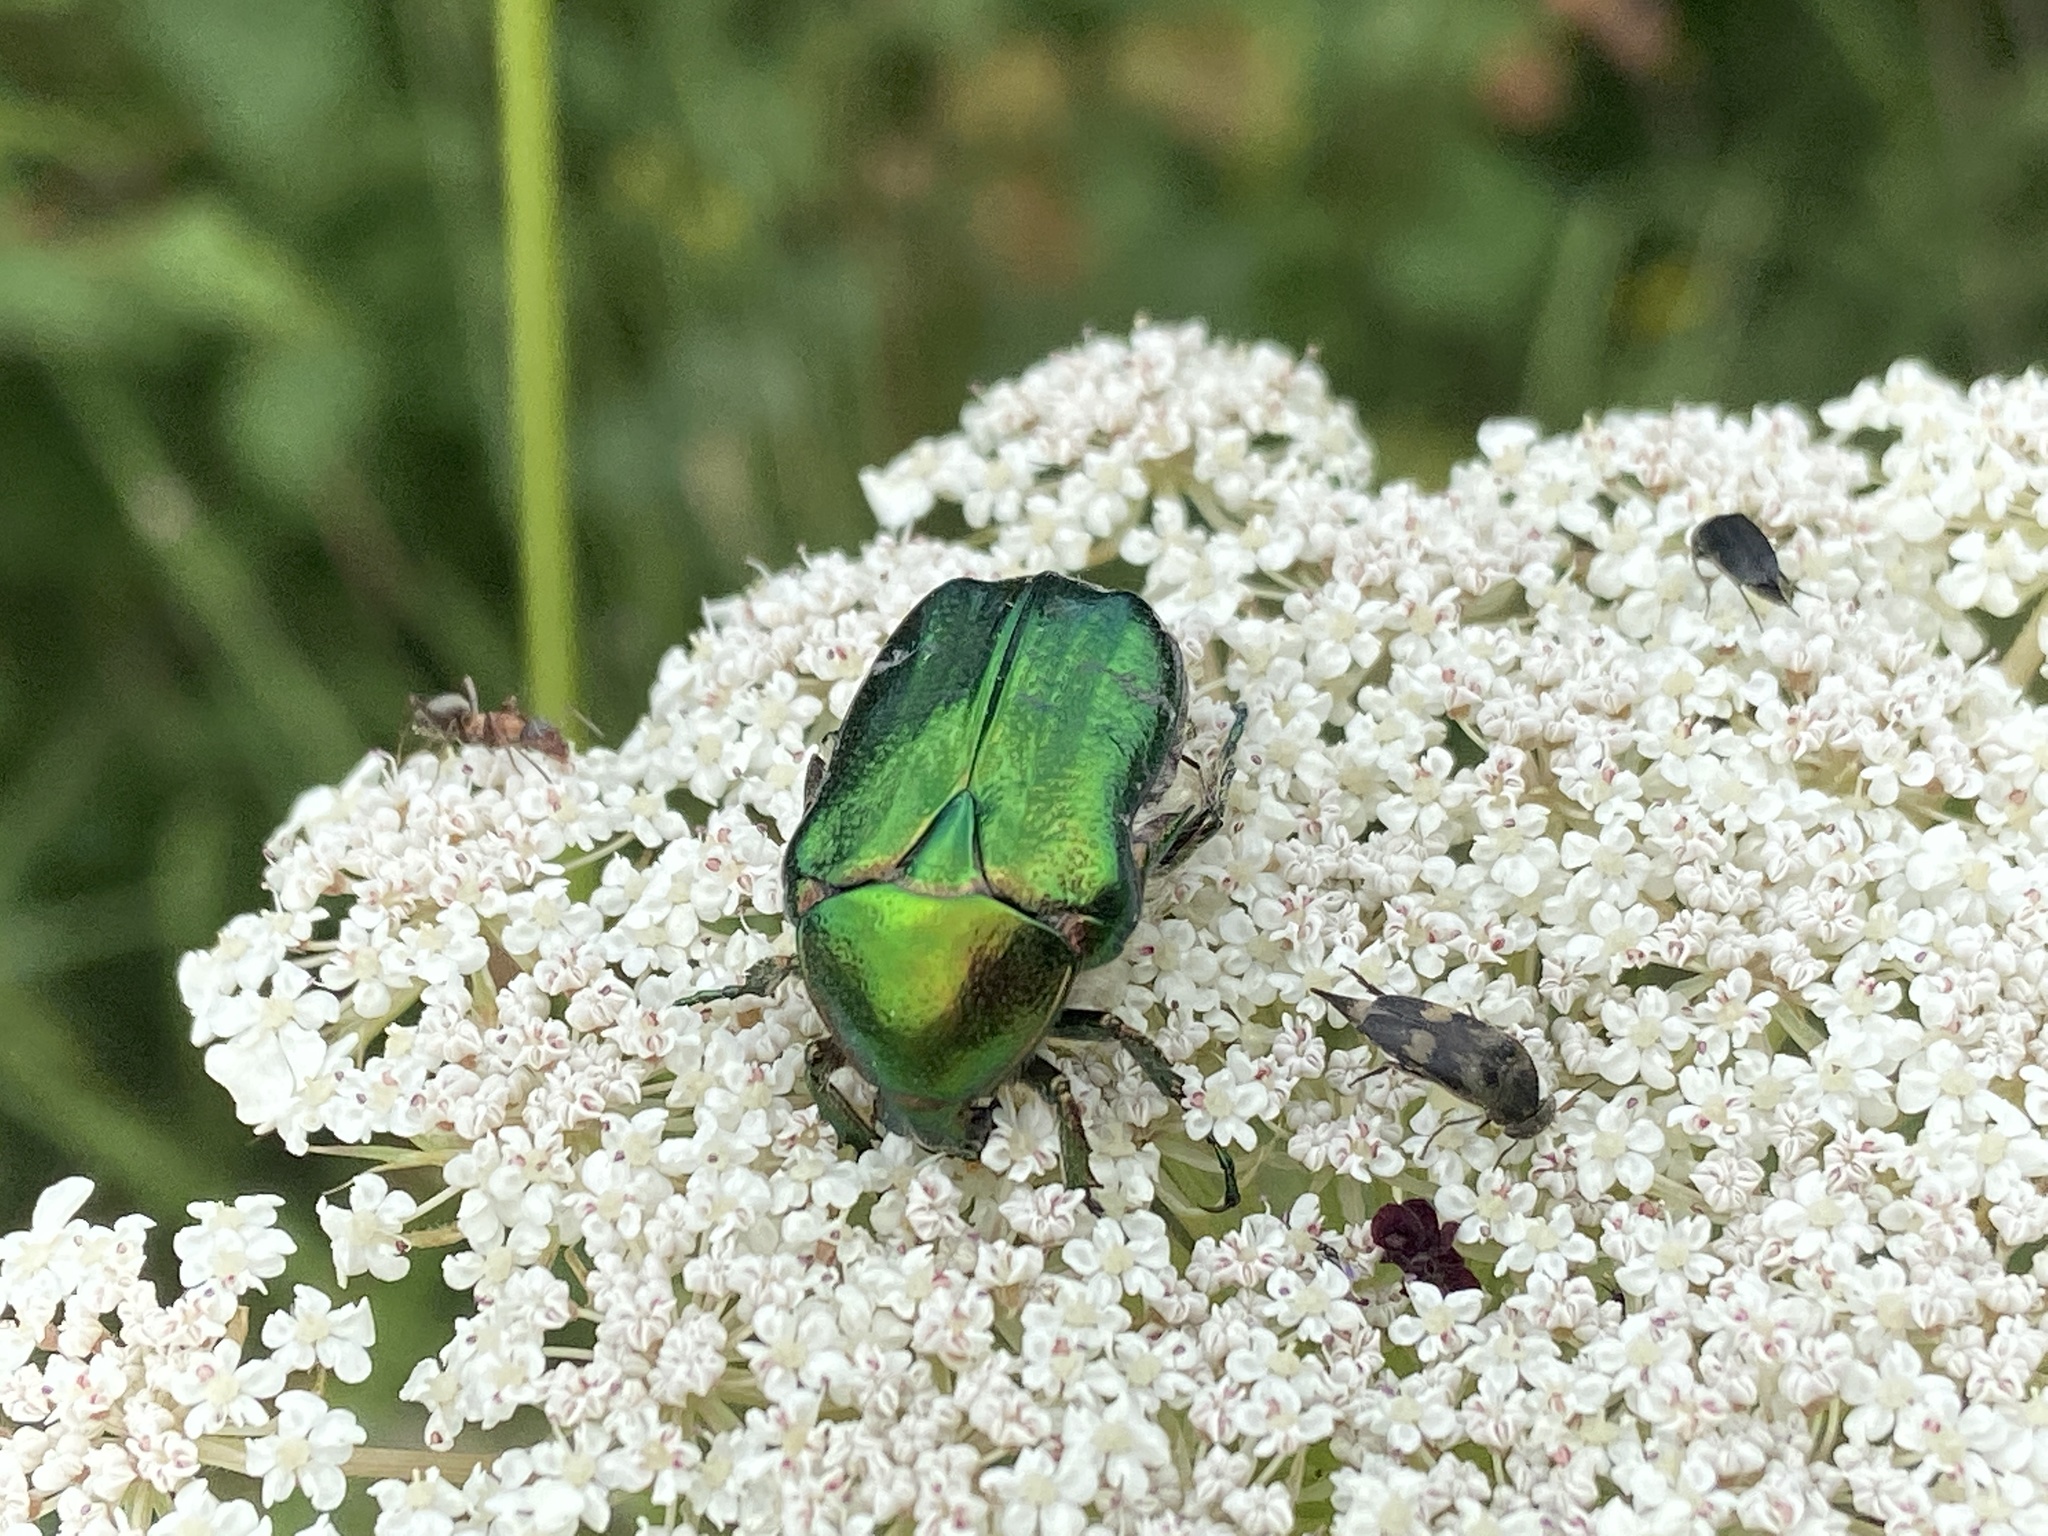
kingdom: Animalia
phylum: Arthropoda
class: Insecta
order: Coleoptera
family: Scarabaeidae
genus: Cetonia
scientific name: Cetonia aurata
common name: Rose chafer
